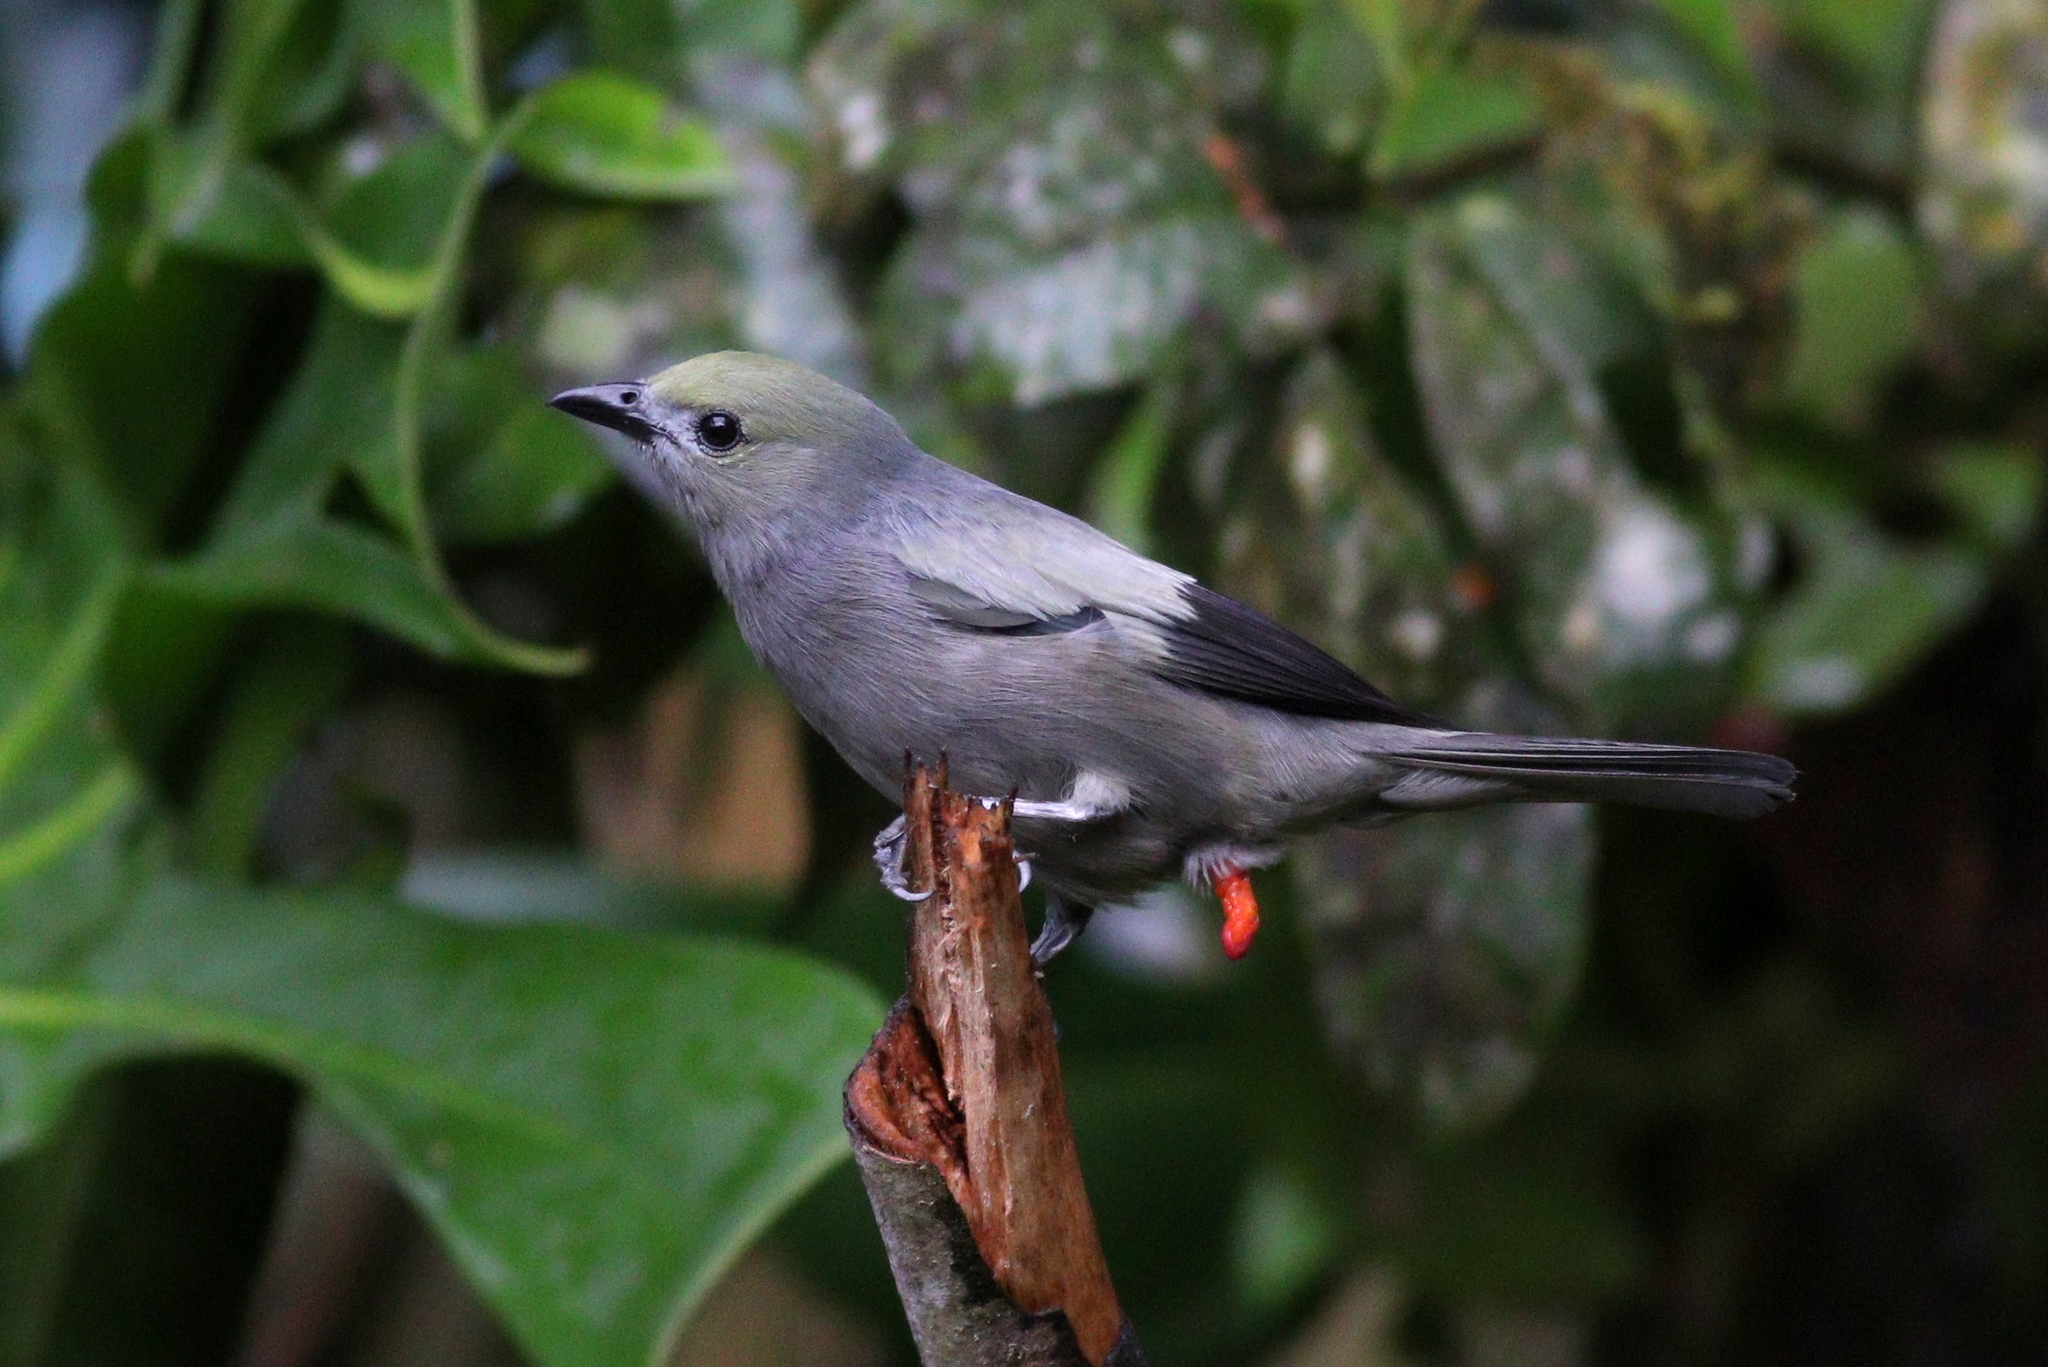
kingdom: Animalia
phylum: Chordata
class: Aves
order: Passeriformes
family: Thraupidae
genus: Thraupis
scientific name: Thraupis palmarum
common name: Palm tanager
